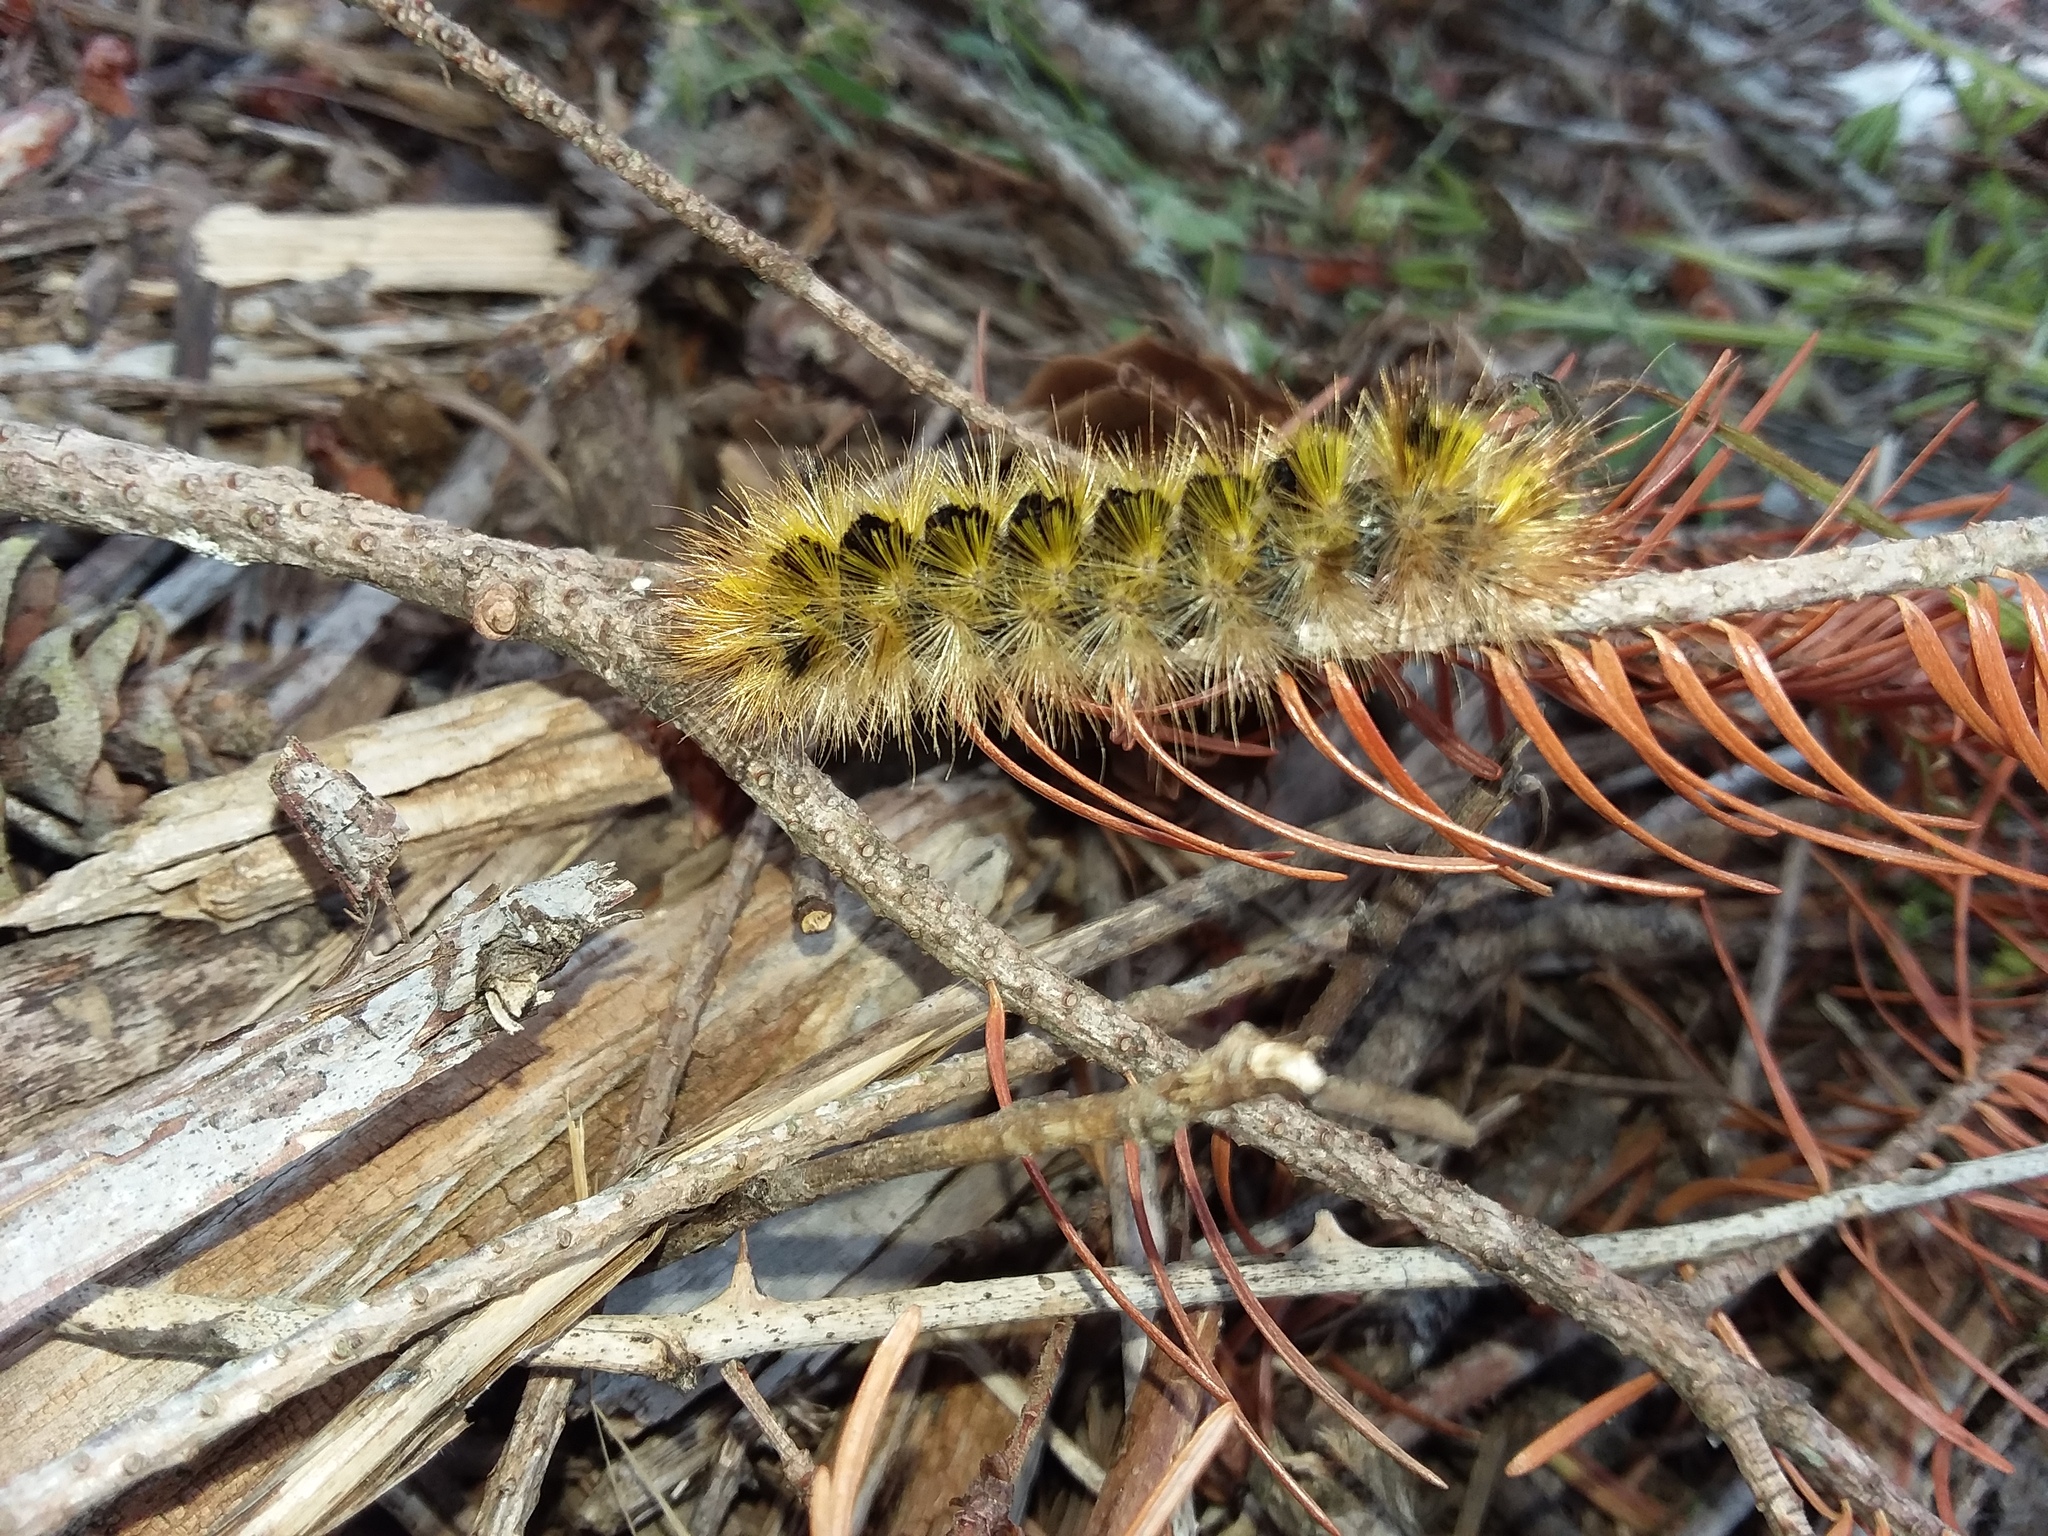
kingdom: Animalia
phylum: Arthropoda
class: Insecta
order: Lepidoptera
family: Erebidae
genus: Lophocampa
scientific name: Lophocampa argentata
